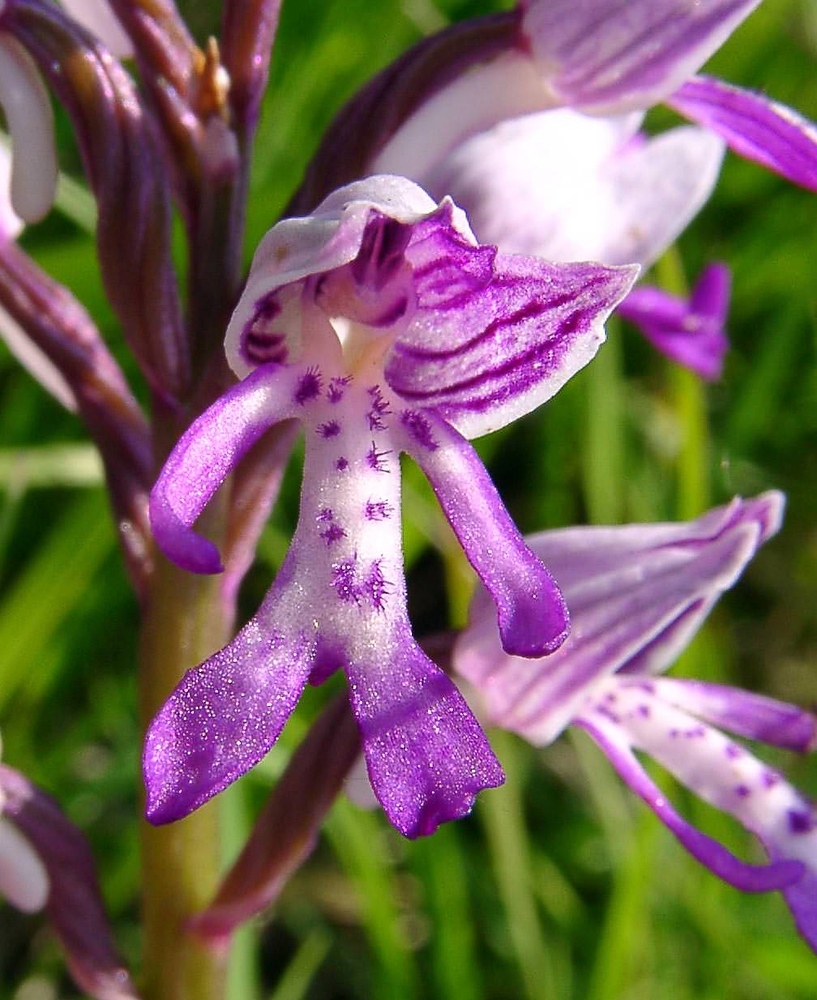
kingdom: Plantae
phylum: Tracheophyta
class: Liliopsida
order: Asparagales
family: Orchidaceae
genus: Orchis
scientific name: Orchis militaris
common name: Military orchid
